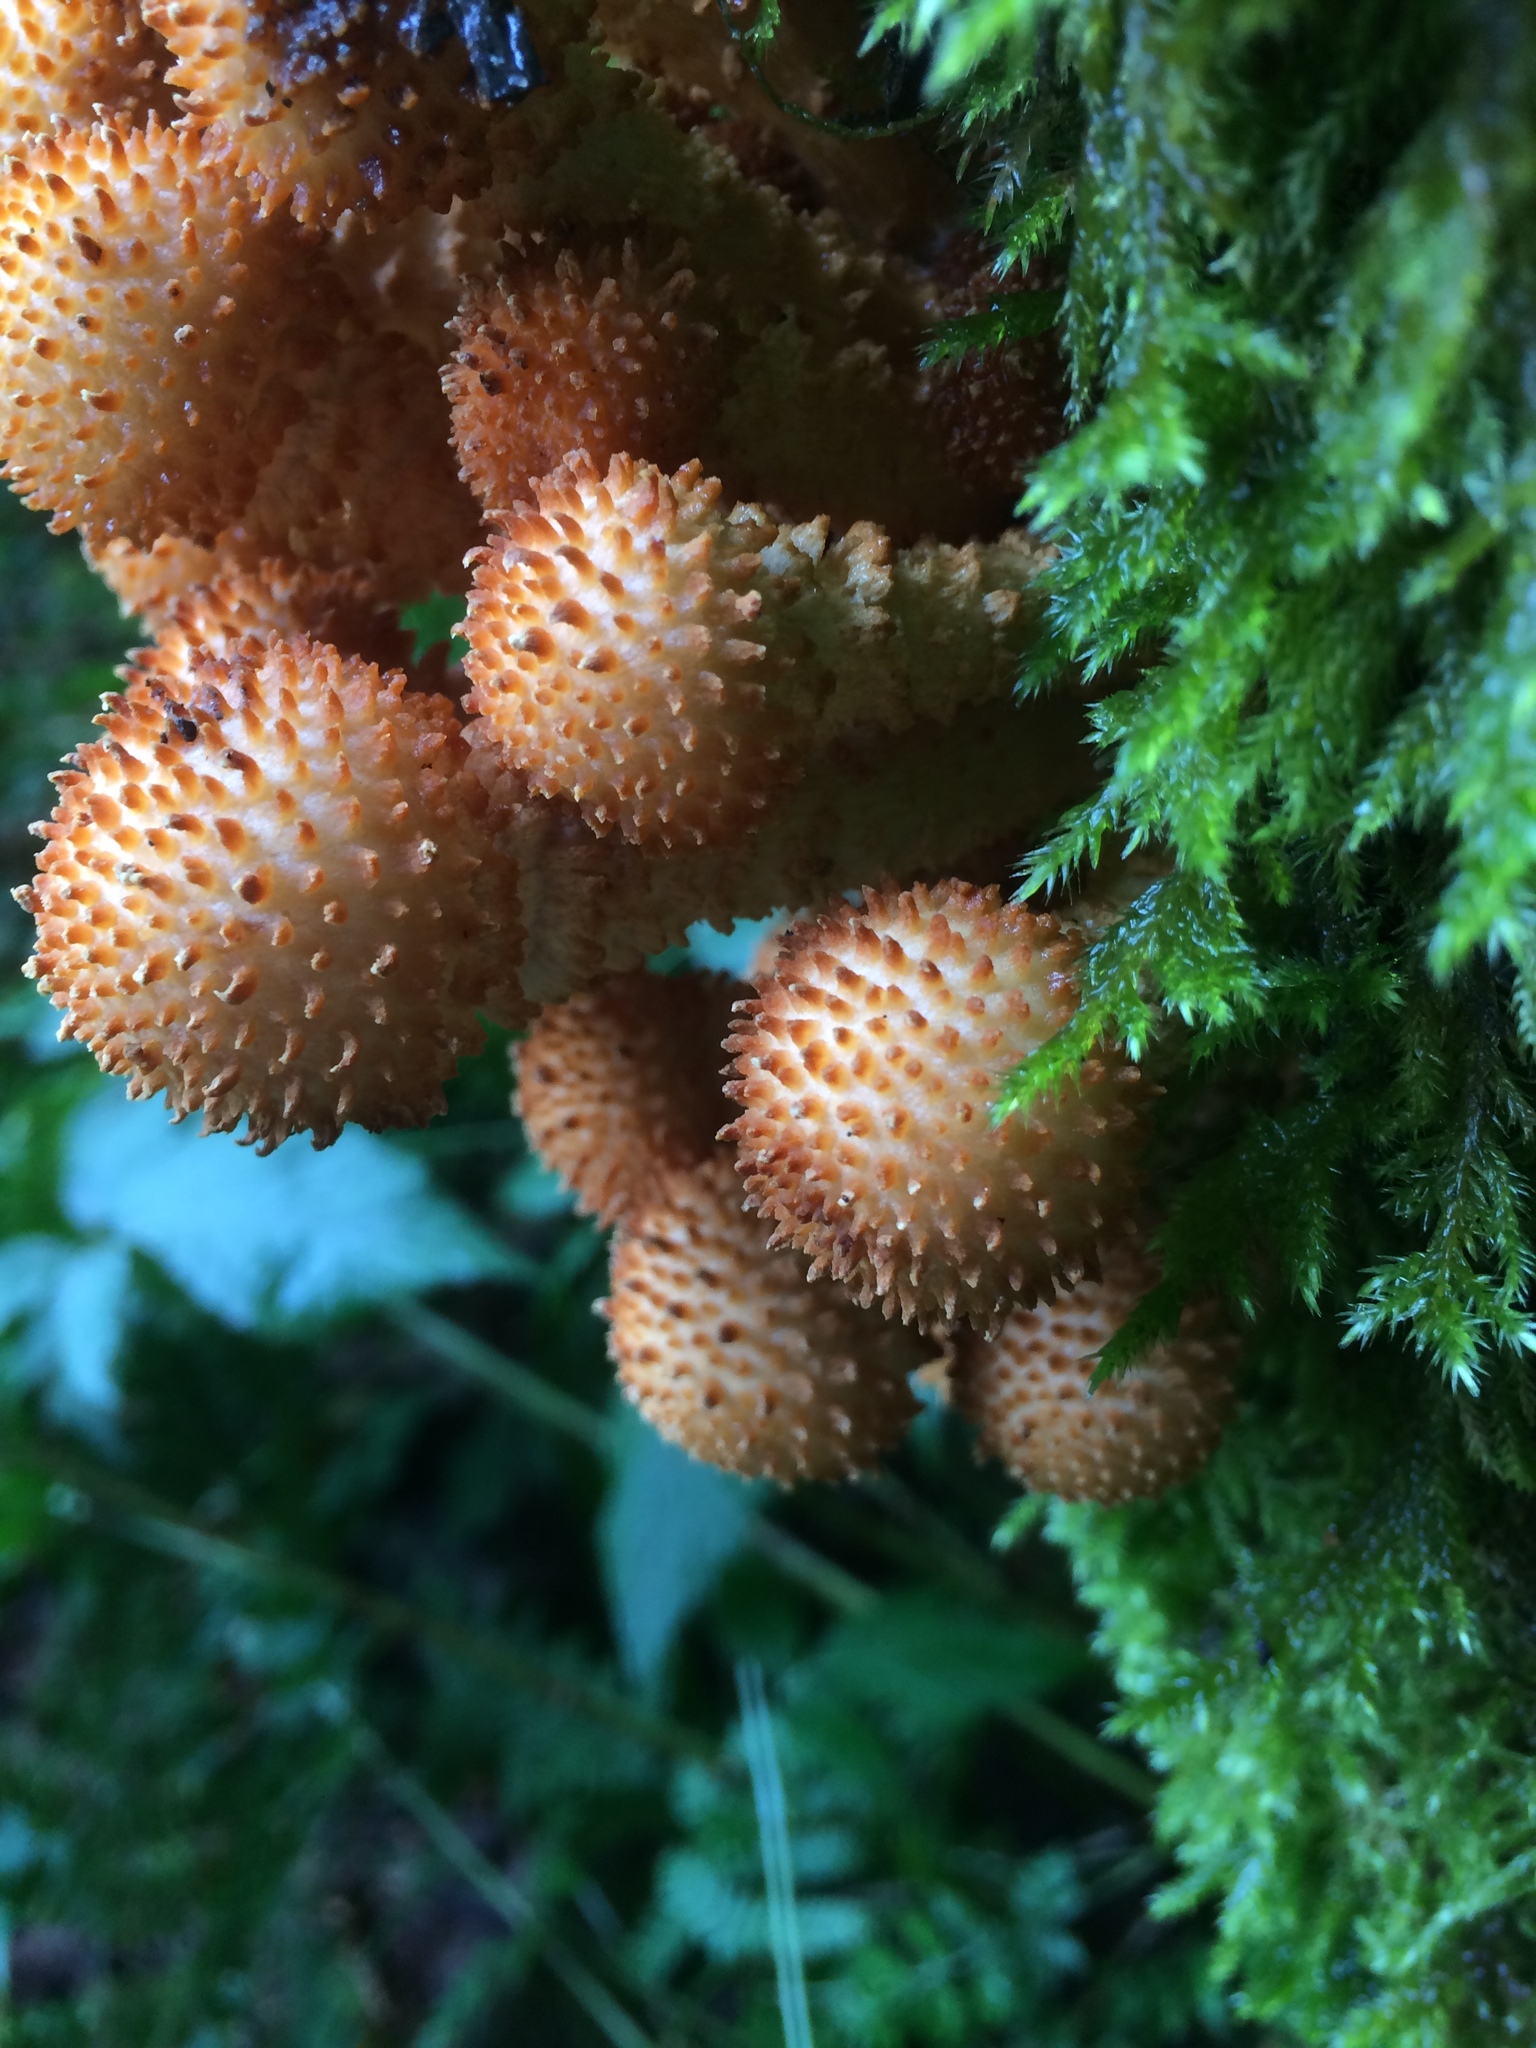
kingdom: Fungi
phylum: Basidiomycota
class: Agaricomycetes
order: Agaricales
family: Strophariaceae
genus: Pholiota
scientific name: Pholiota squarrosa
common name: Shaggy pholiota
